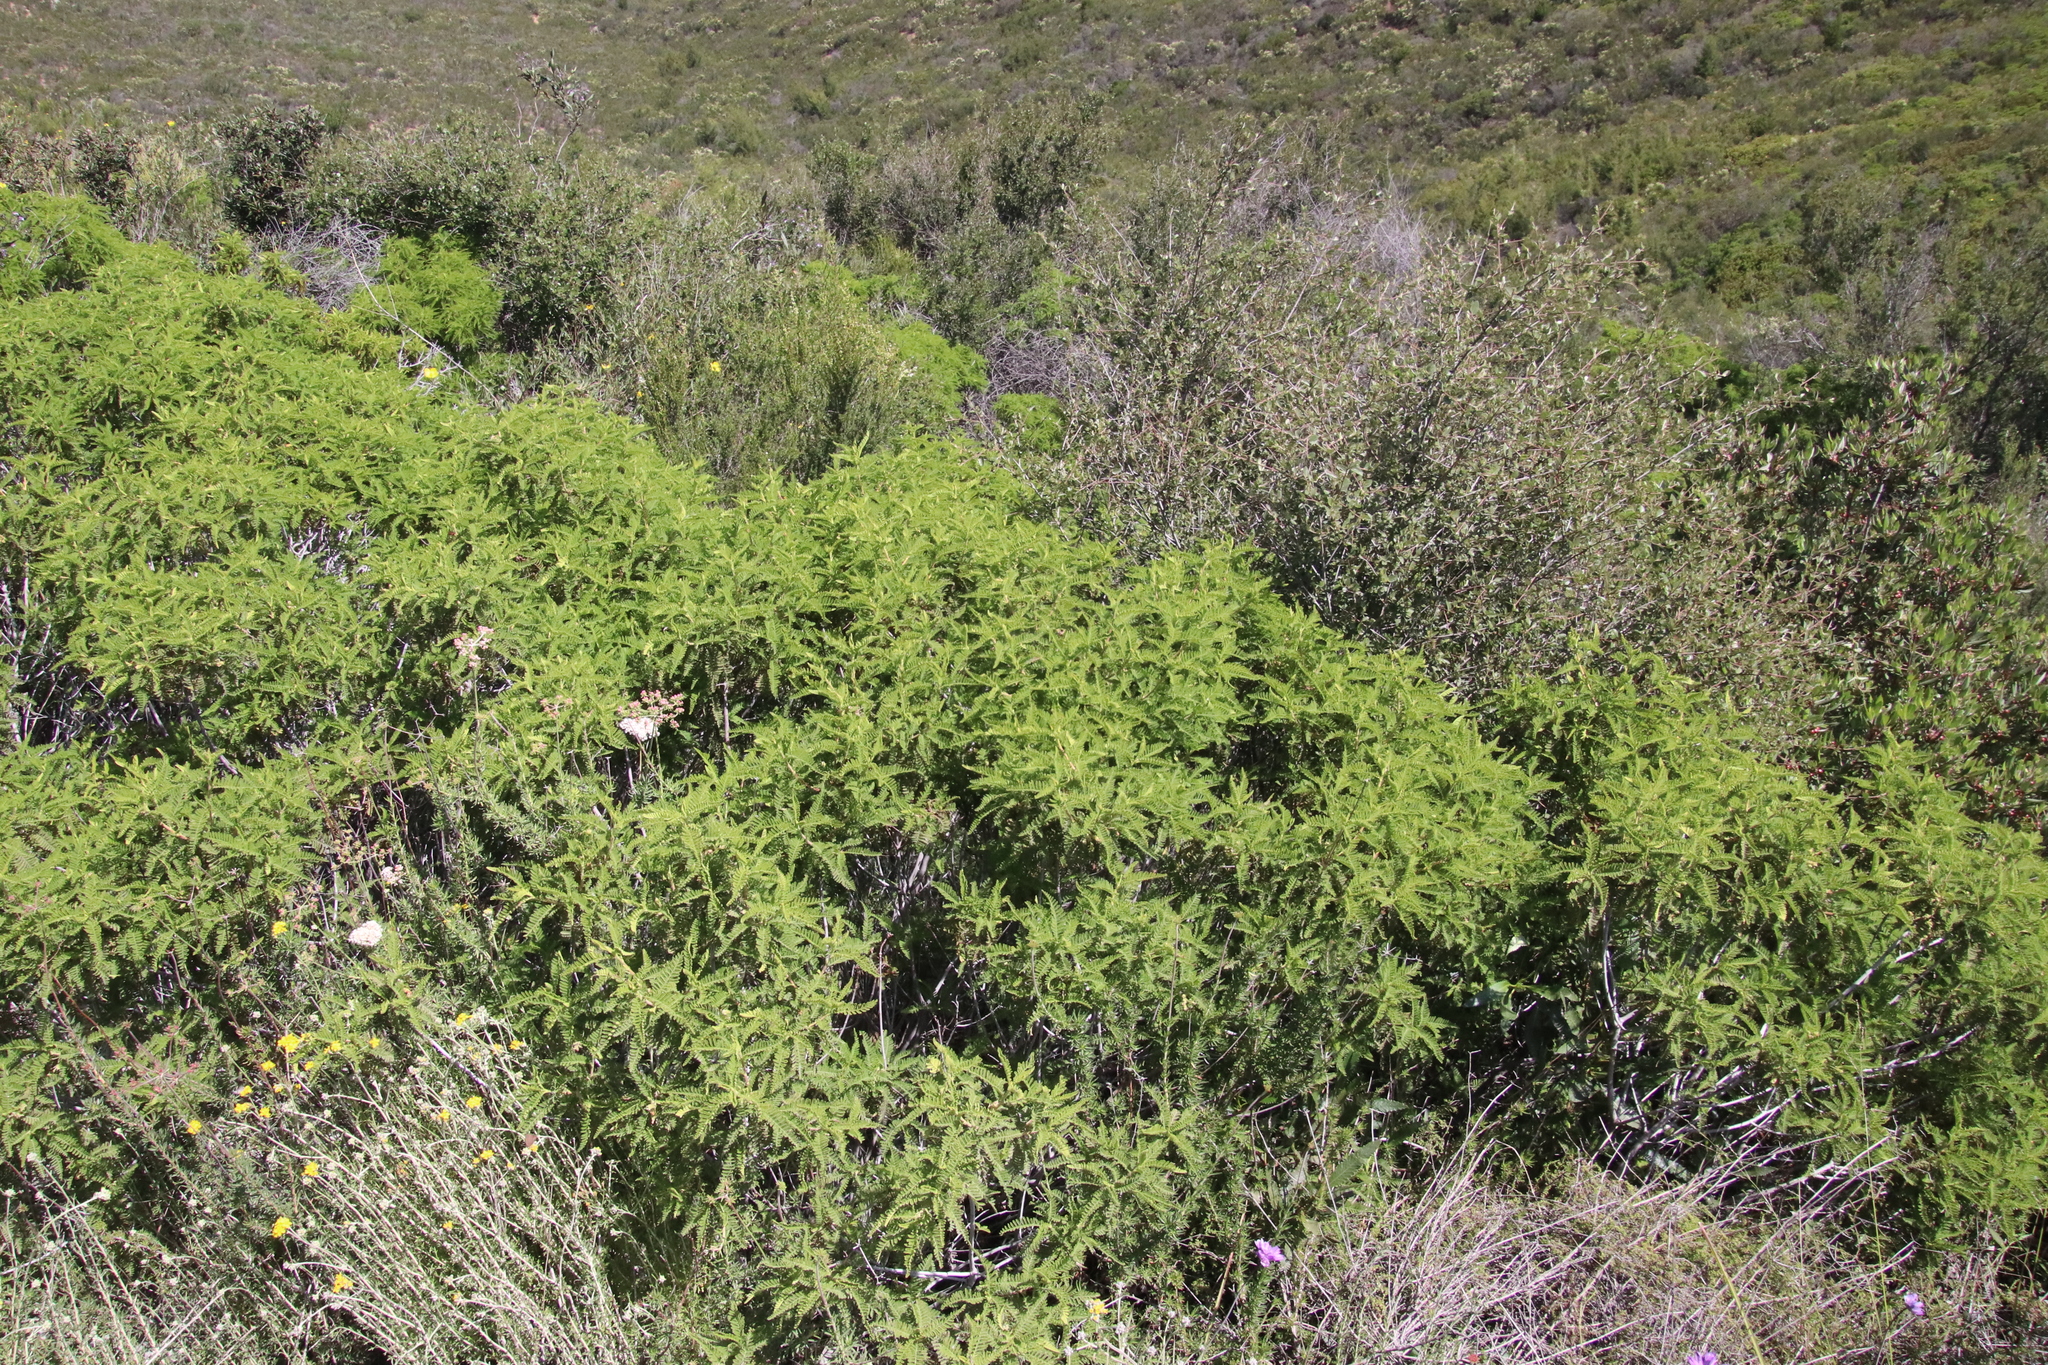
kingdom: Plantae
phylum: Tracheophyta
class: Magnoliopsida
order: Rosales
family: Rosaceae
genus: Chamaebatia
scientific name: Chamaebatia australis
